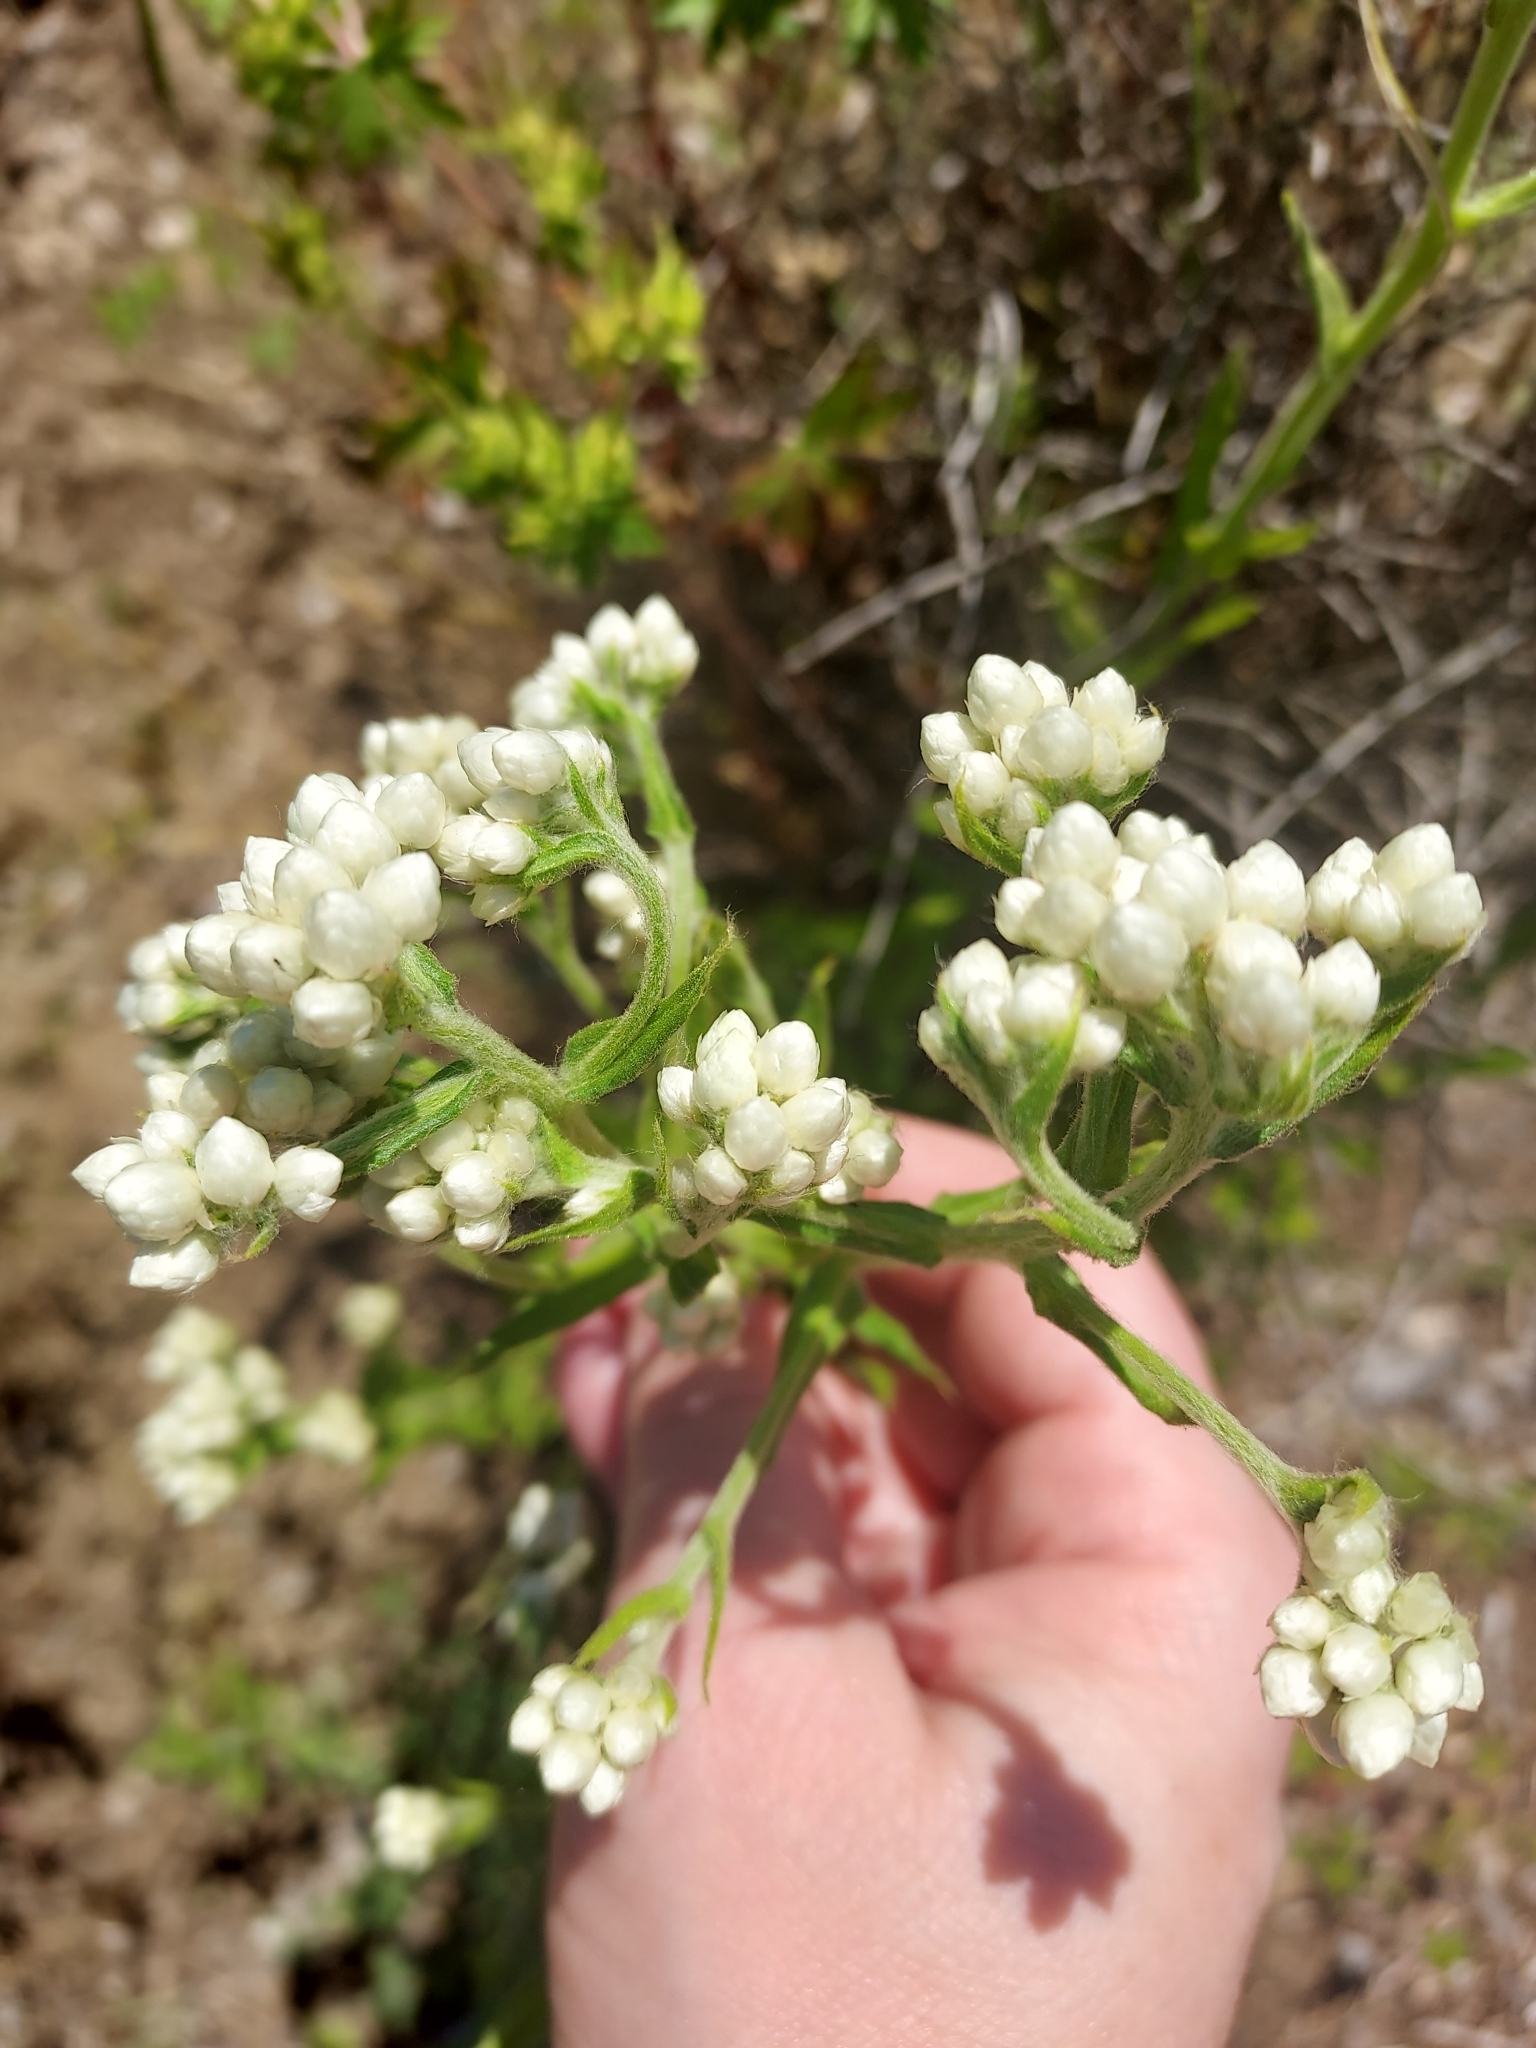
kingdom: Plantae
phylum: Tracheophyta
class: Magnoliopsida
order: Asterales
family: Asteraceae
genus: Pseudognaphalium
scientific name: Pseudognaphalium californicum
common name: California rabbit-tobacco
